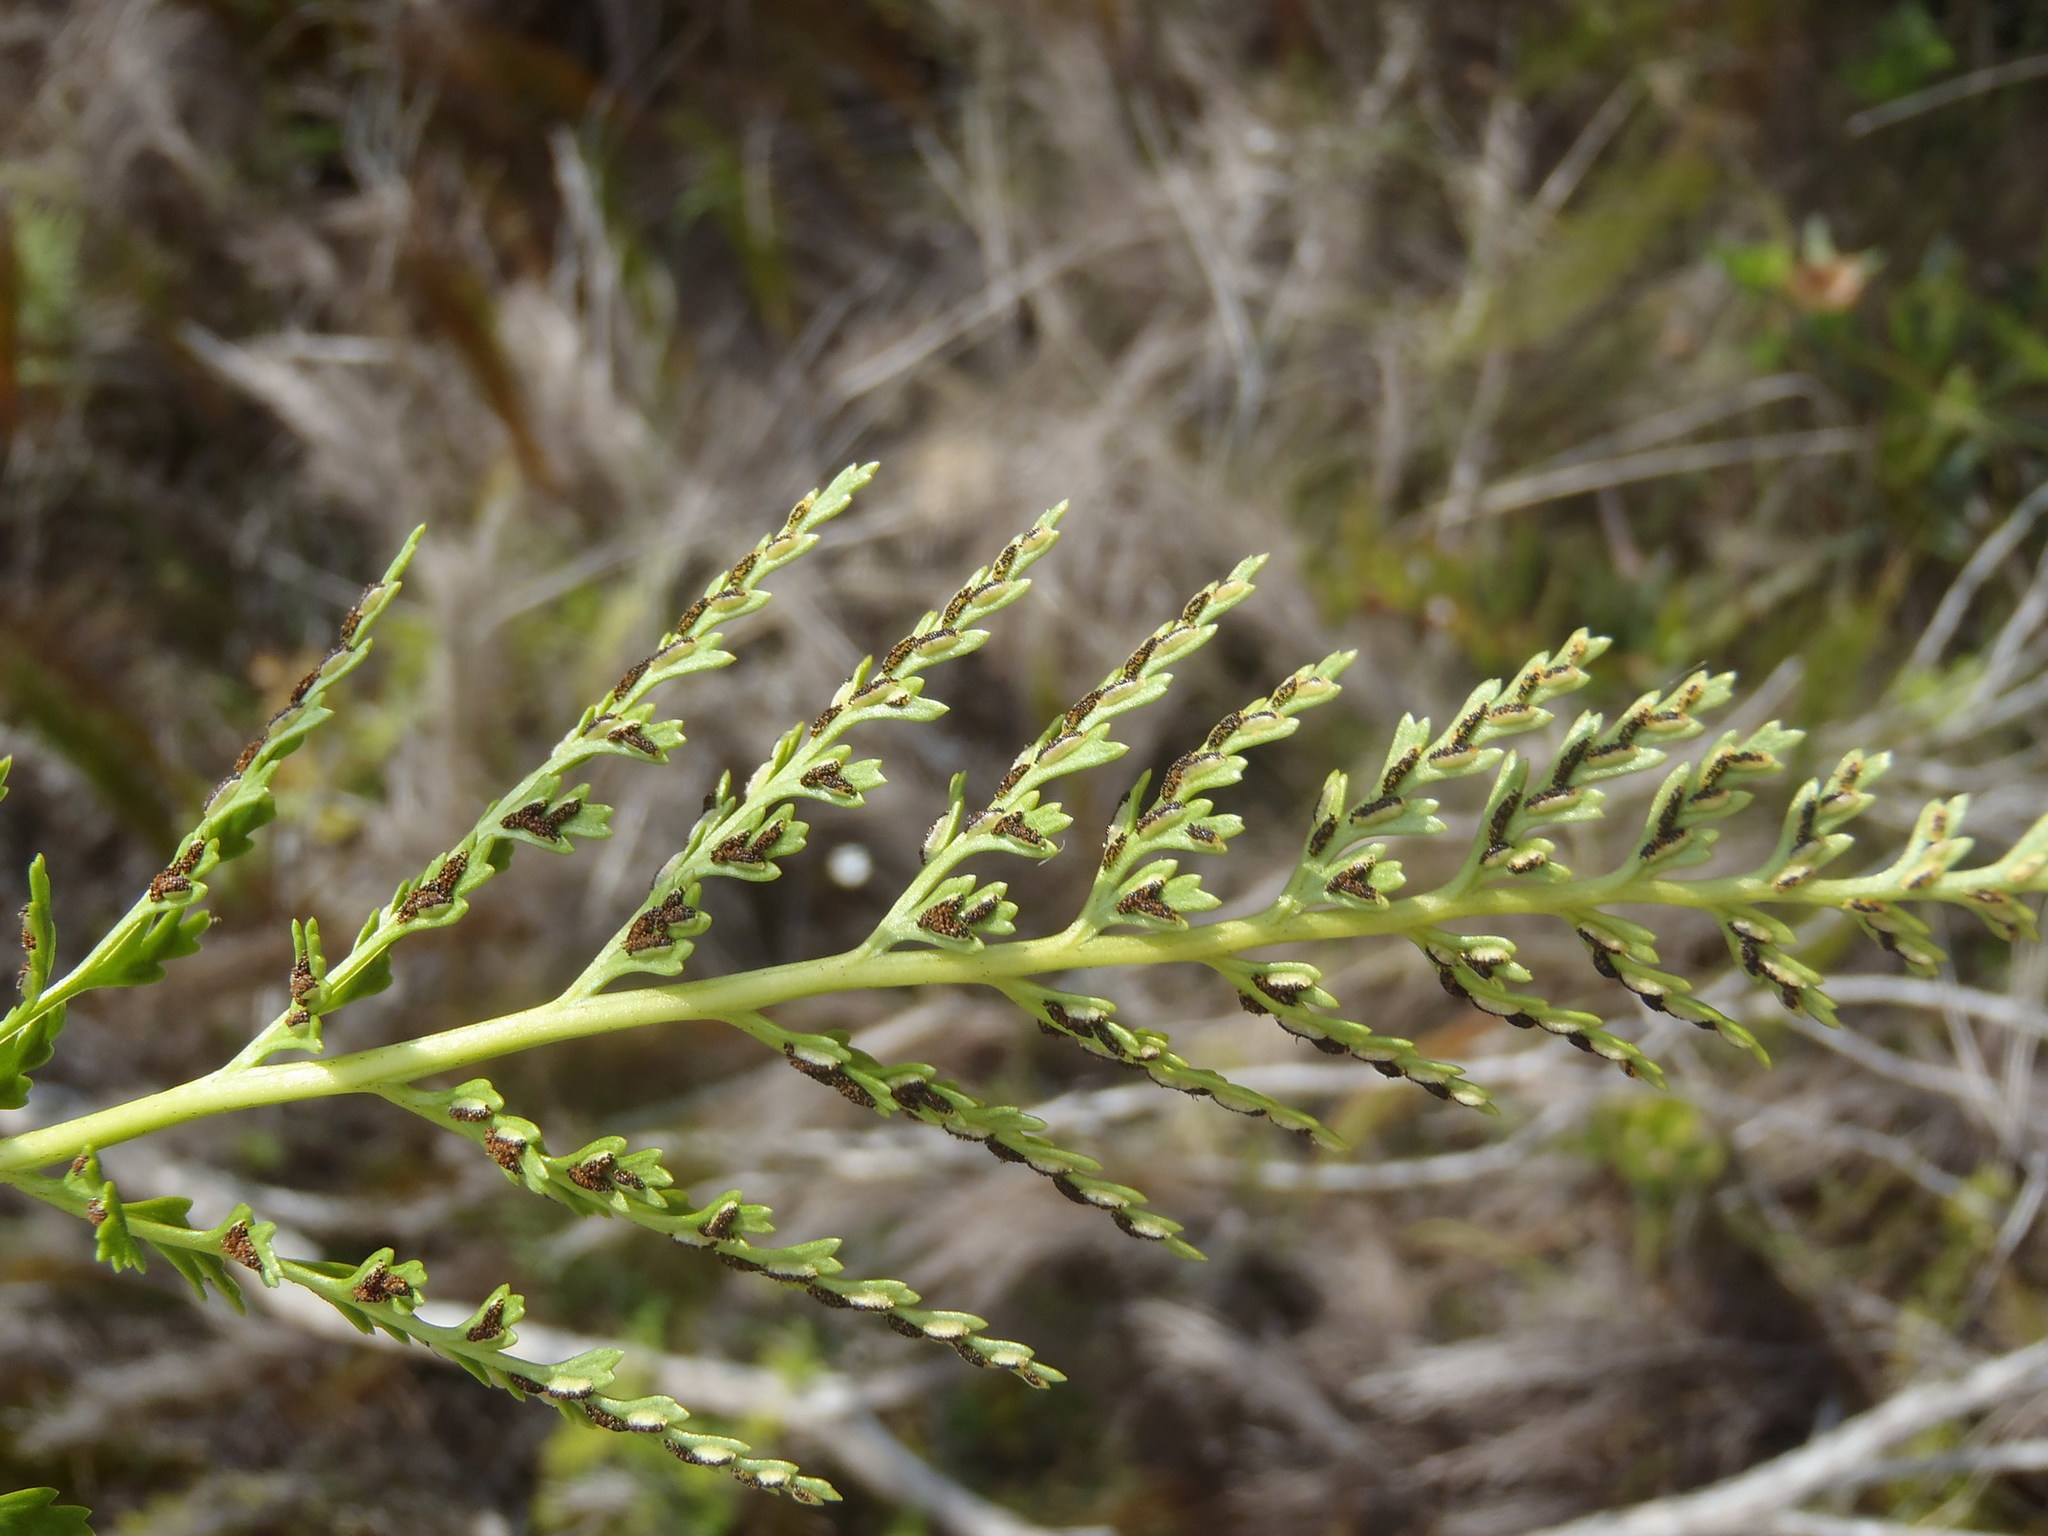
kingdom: Plantae
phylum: Tracheophyta
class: Polypodiopsida
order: Polypodiales
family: Aspleniaceae
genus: Asplenium
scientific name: Asplenium adiantum-nigrum
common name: Black spleenwort
